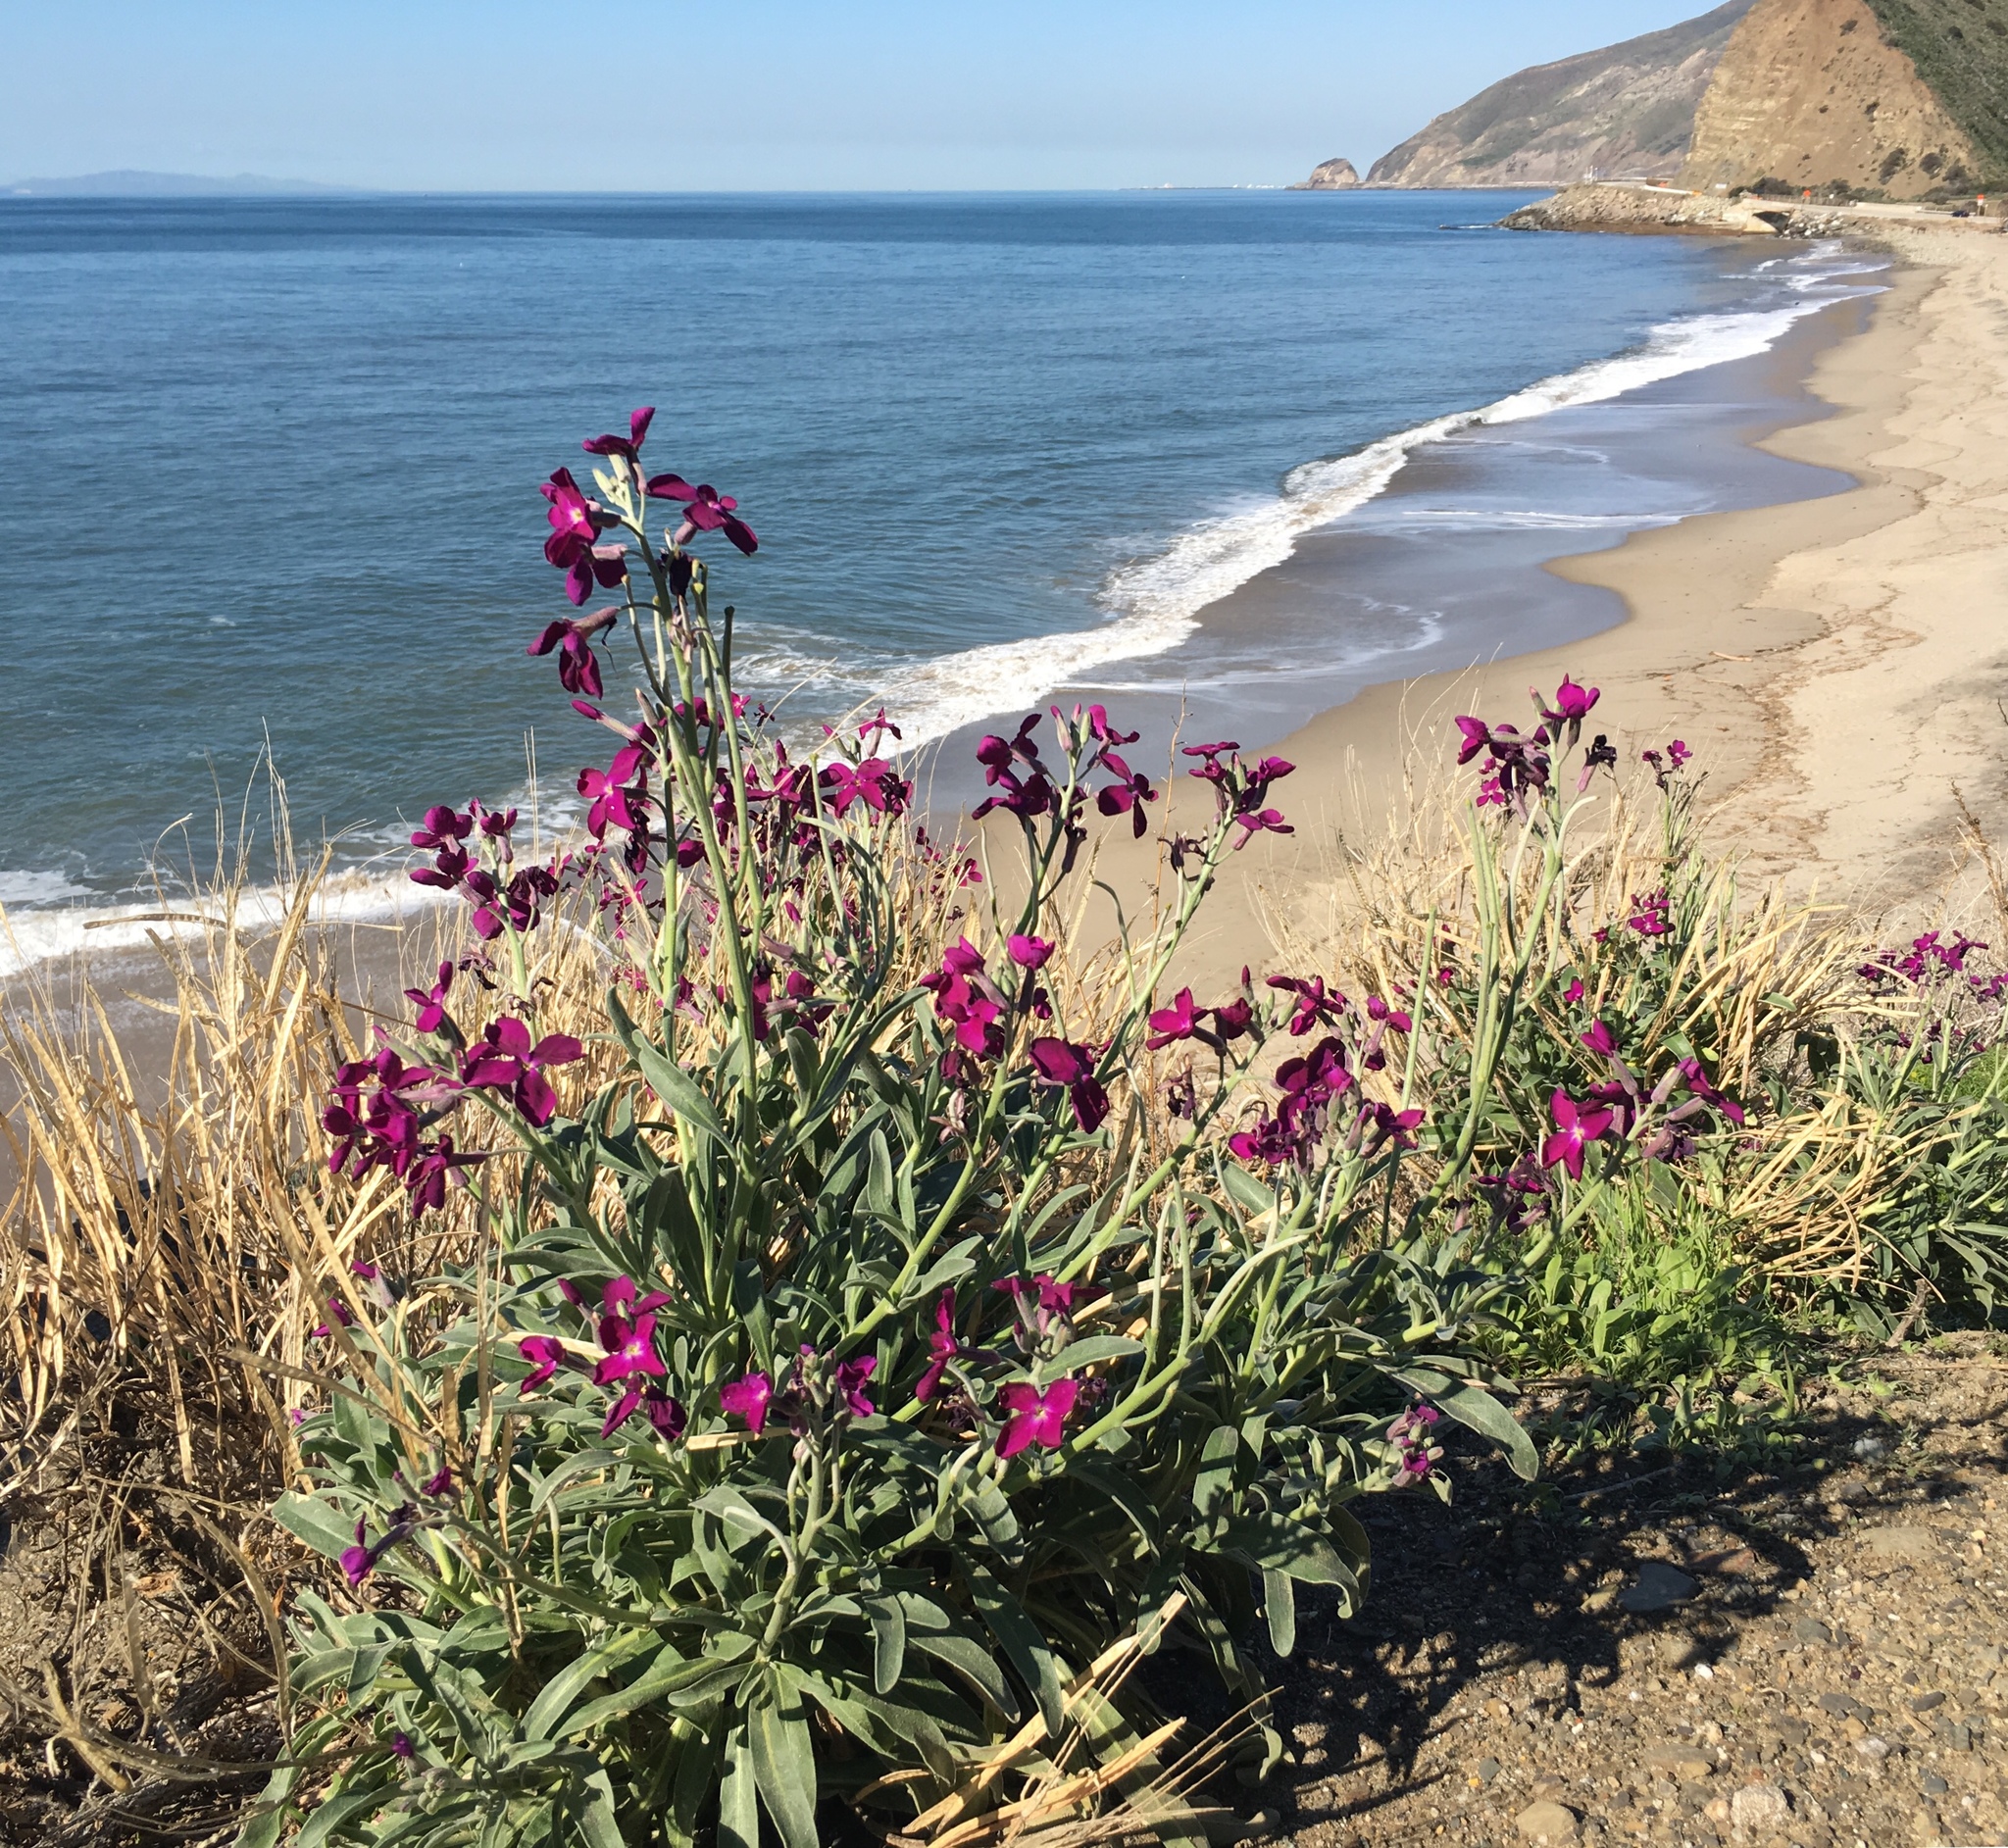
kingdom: Plantae
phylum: Tracheophyta
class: Magnoliopsida
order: Brassicales
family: Brassicaceae
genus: Matthiola
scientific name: Matthiola incana
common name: Hoary stock
